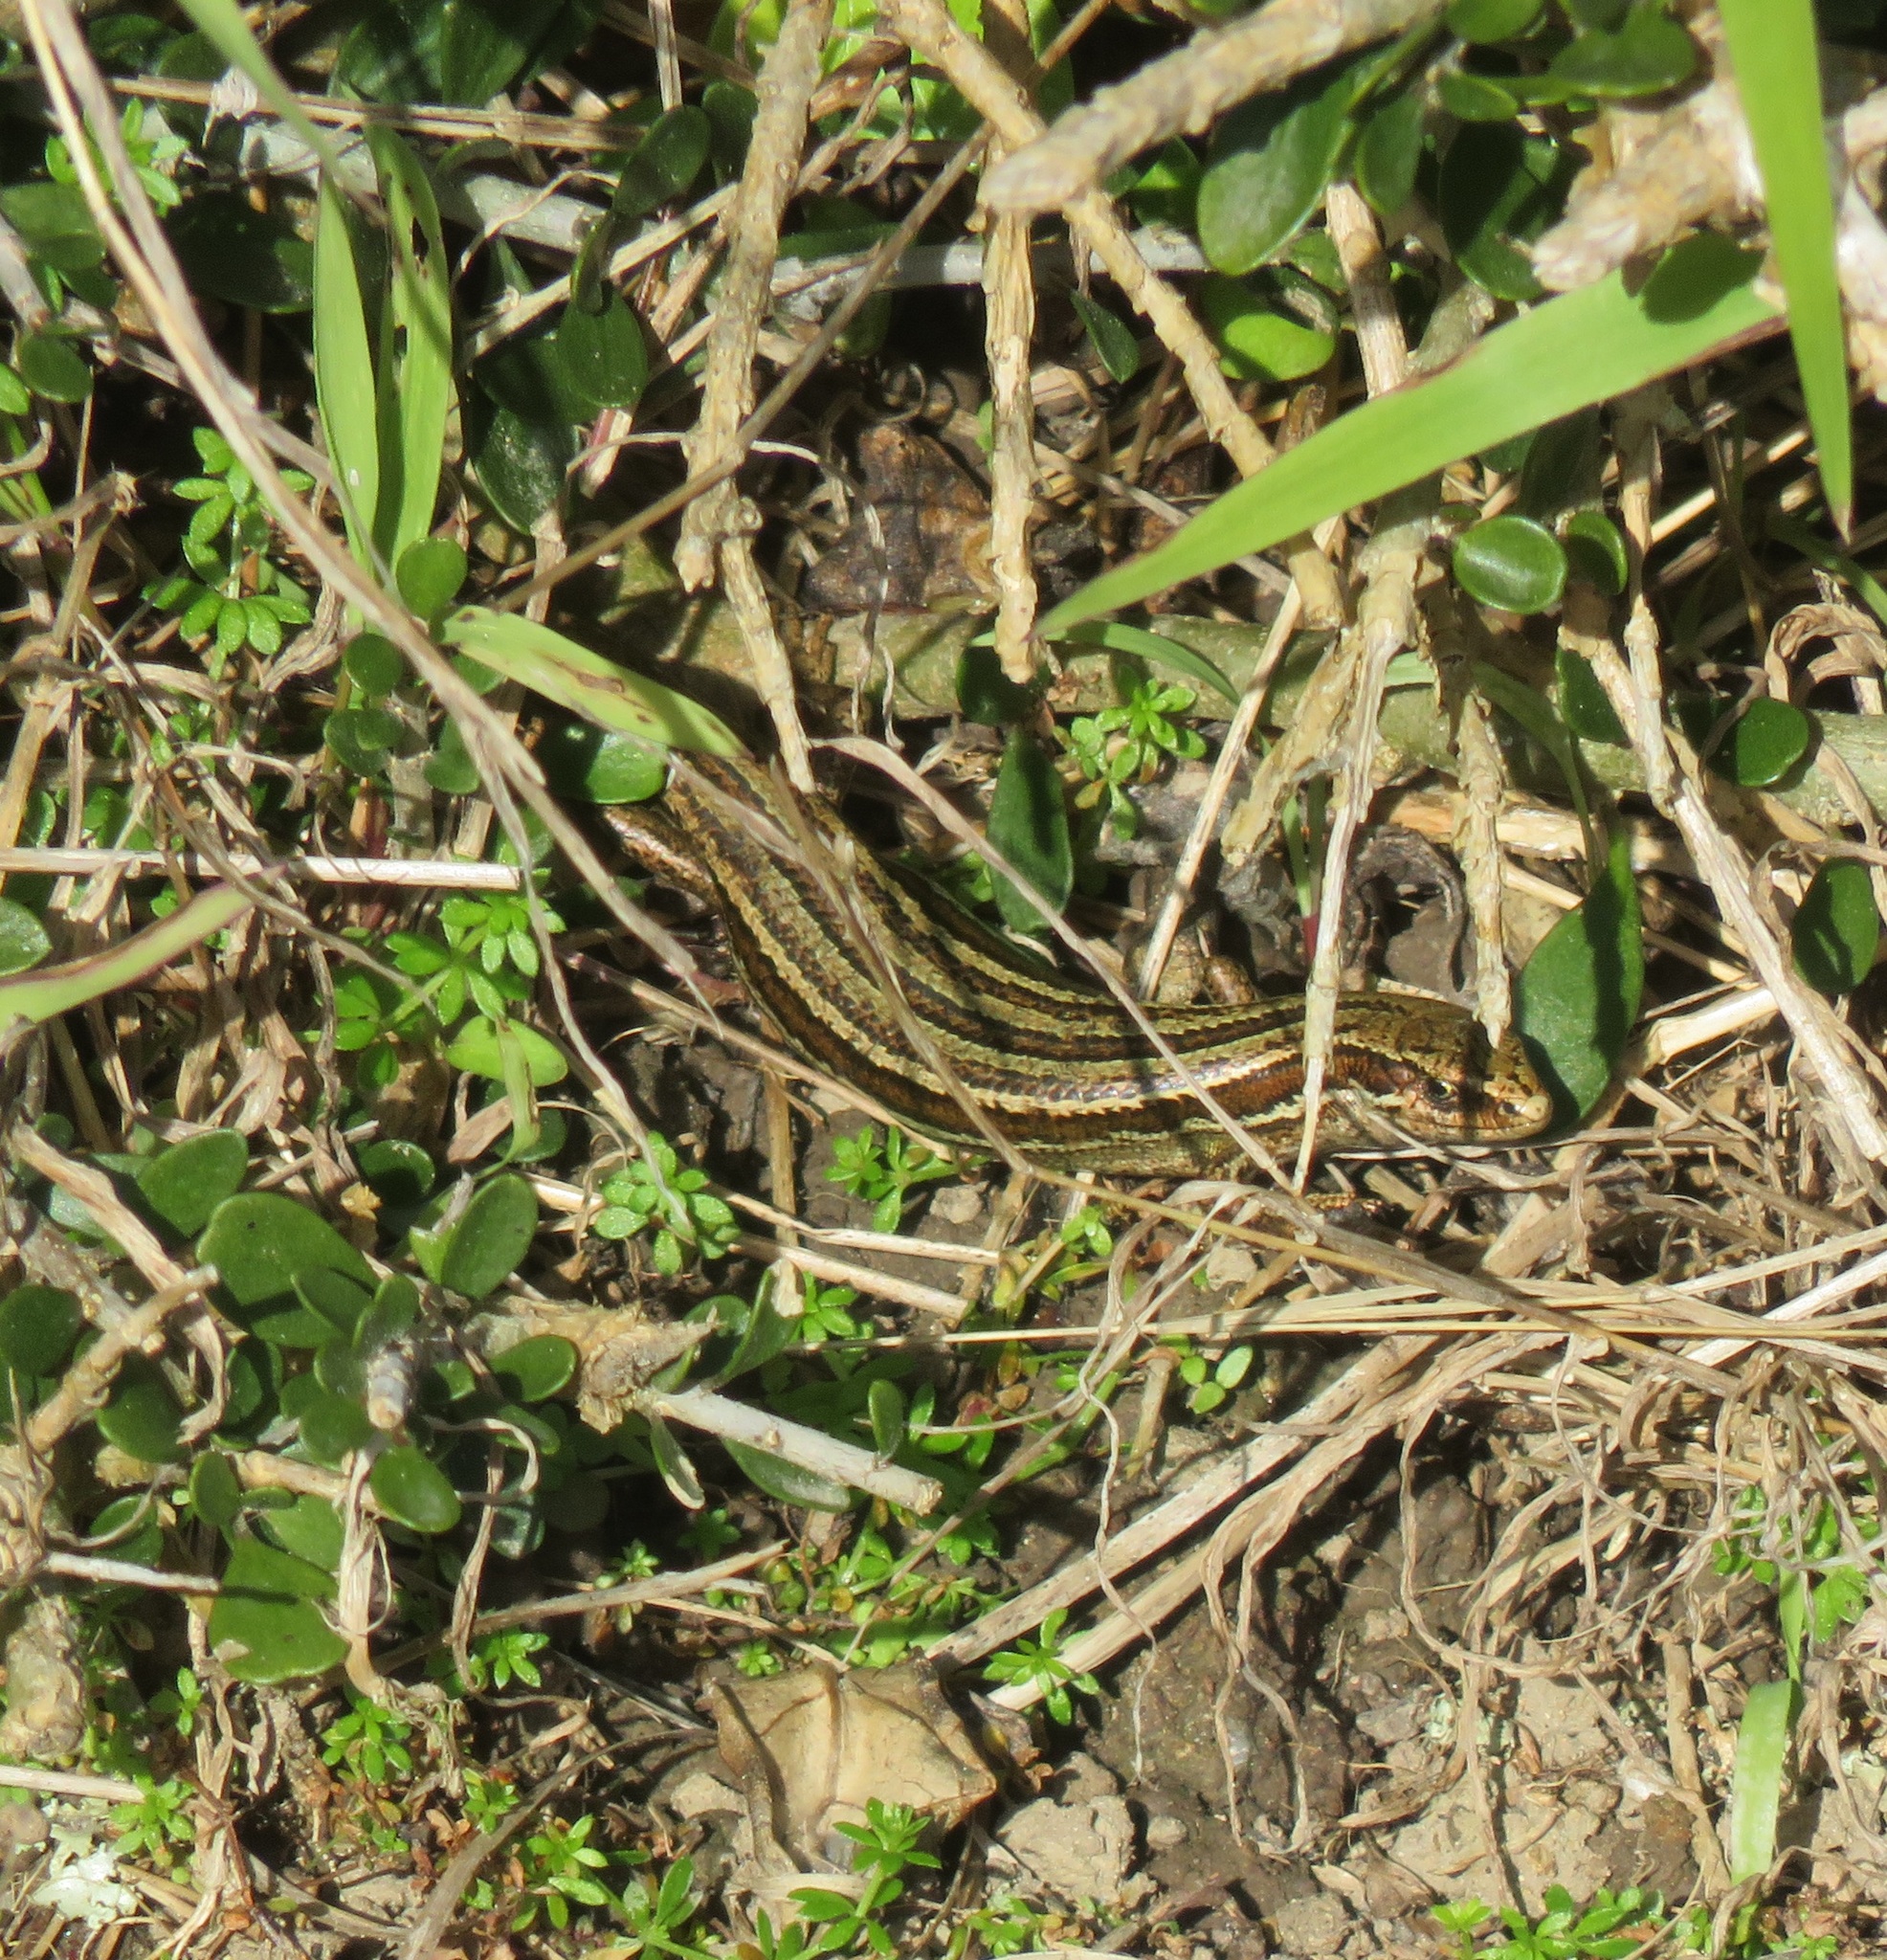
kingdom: Animalia
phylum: Chordata
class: Squamata
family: Scincidae
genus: Oligosoma
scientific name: Oligosoma polychroma
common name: Common new zealand skink
